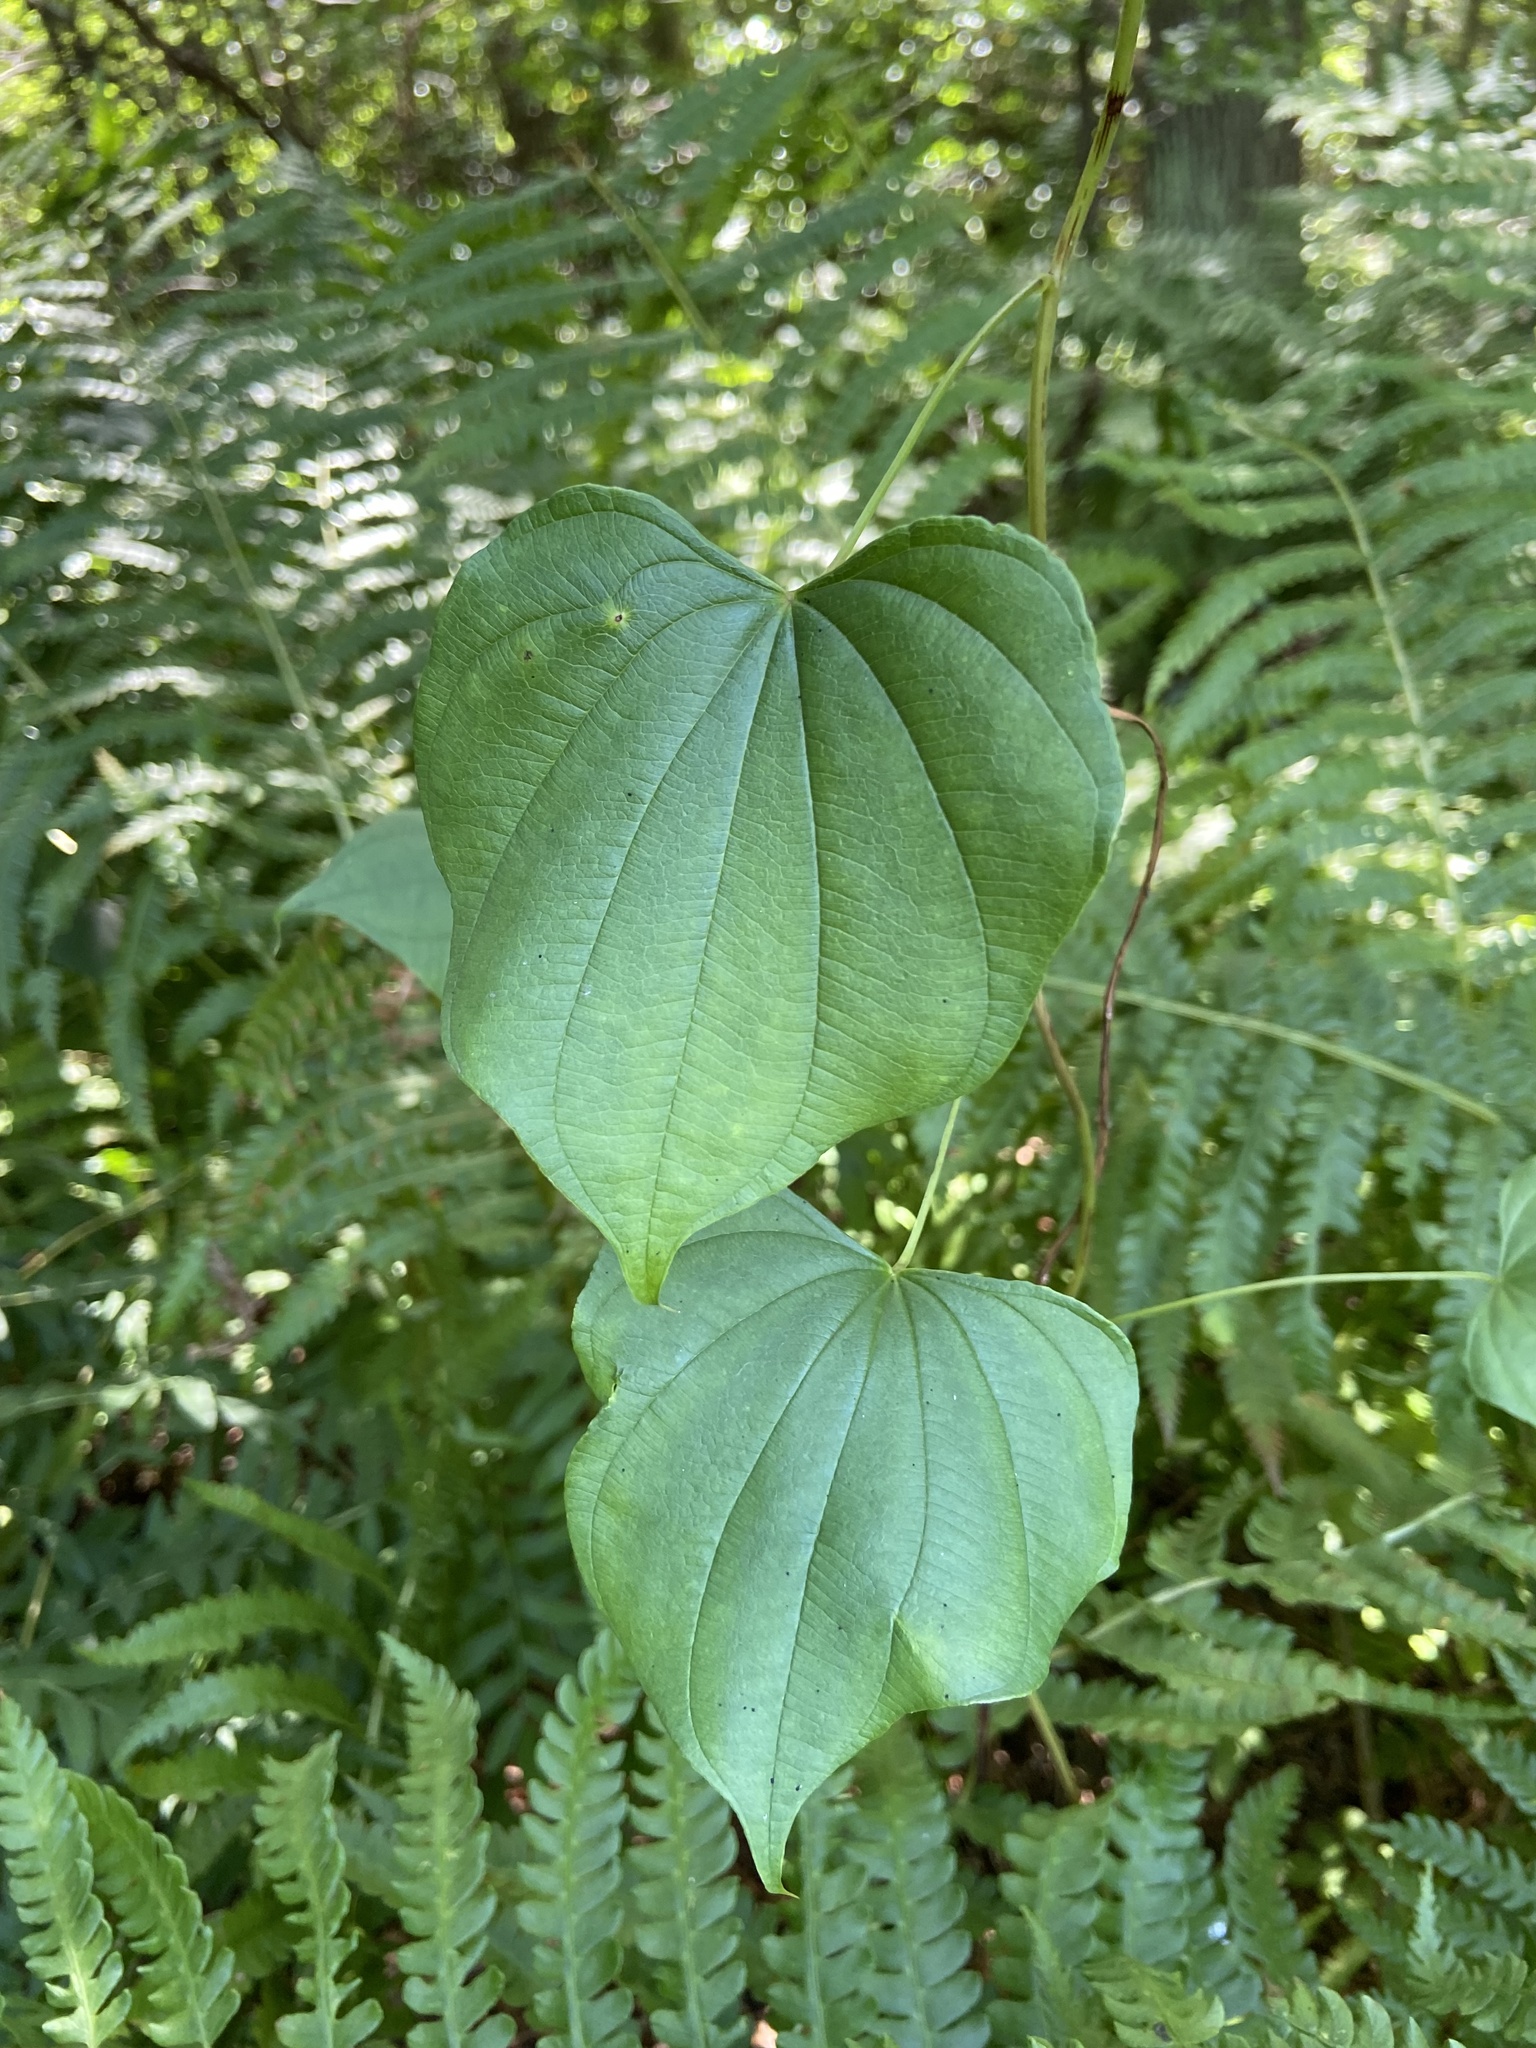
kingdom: Plantae
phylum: Tracheophyta
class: Liliopsida
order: Dioscoreales
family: Dioscoreaceae
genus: Dioscorea
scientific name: Dioscorea villosa
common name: Wild yam
